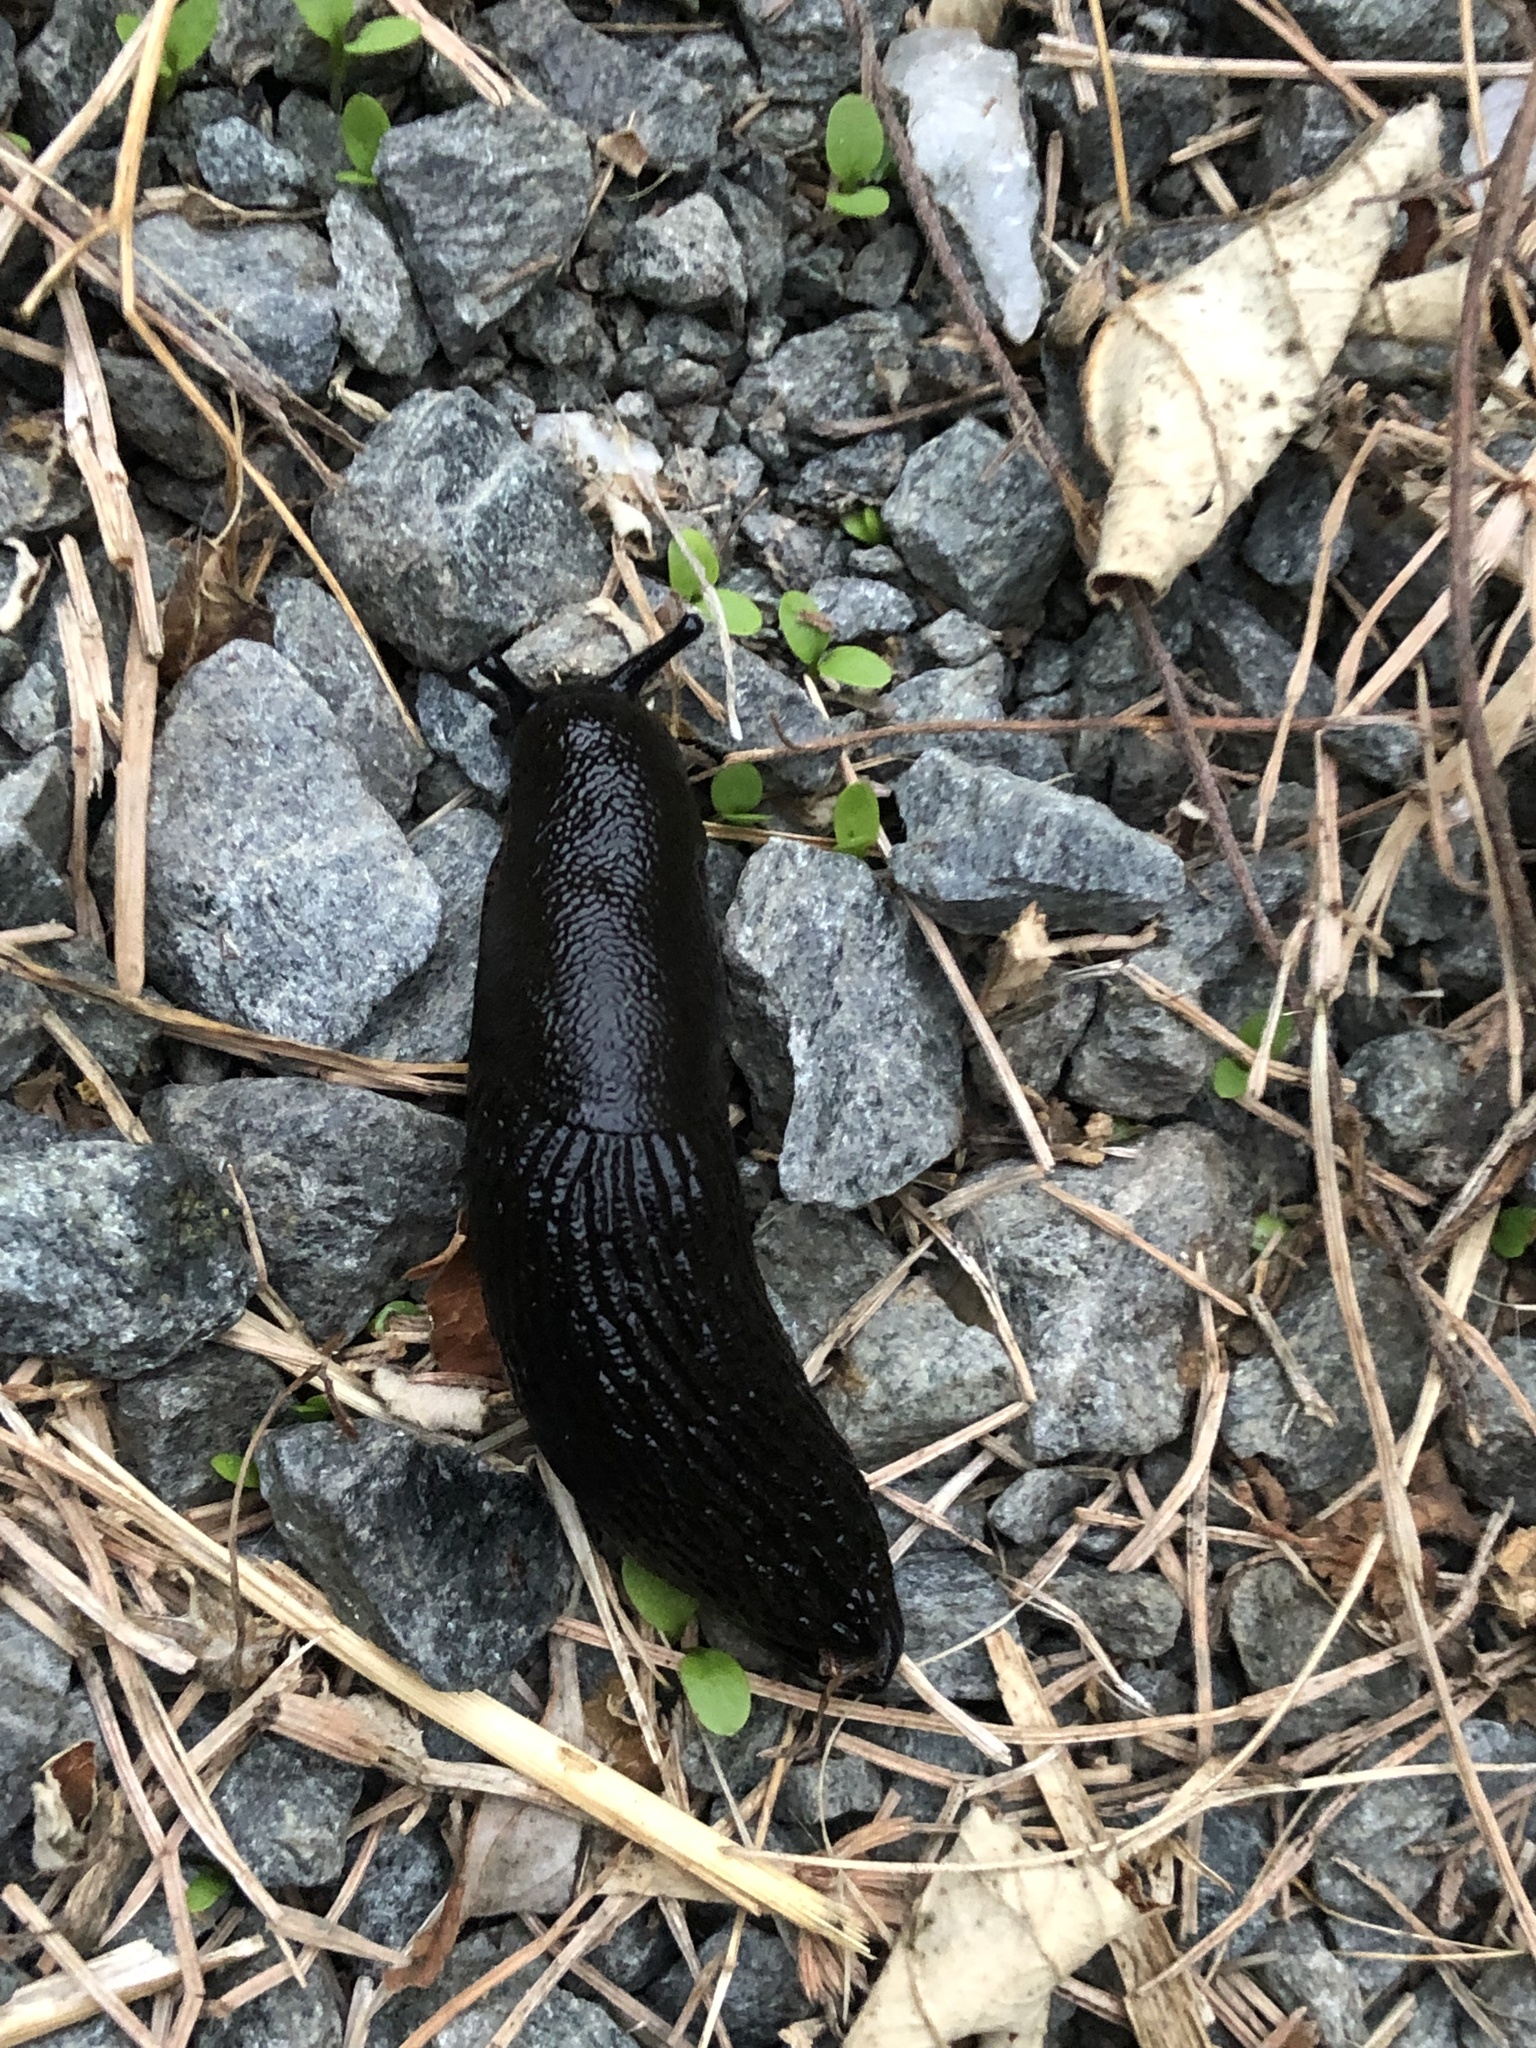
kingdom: Animalia
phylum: Mollusca
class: Gastropoda
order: Stylommatophora
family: Arionidae
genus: Arion
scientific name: Arion
